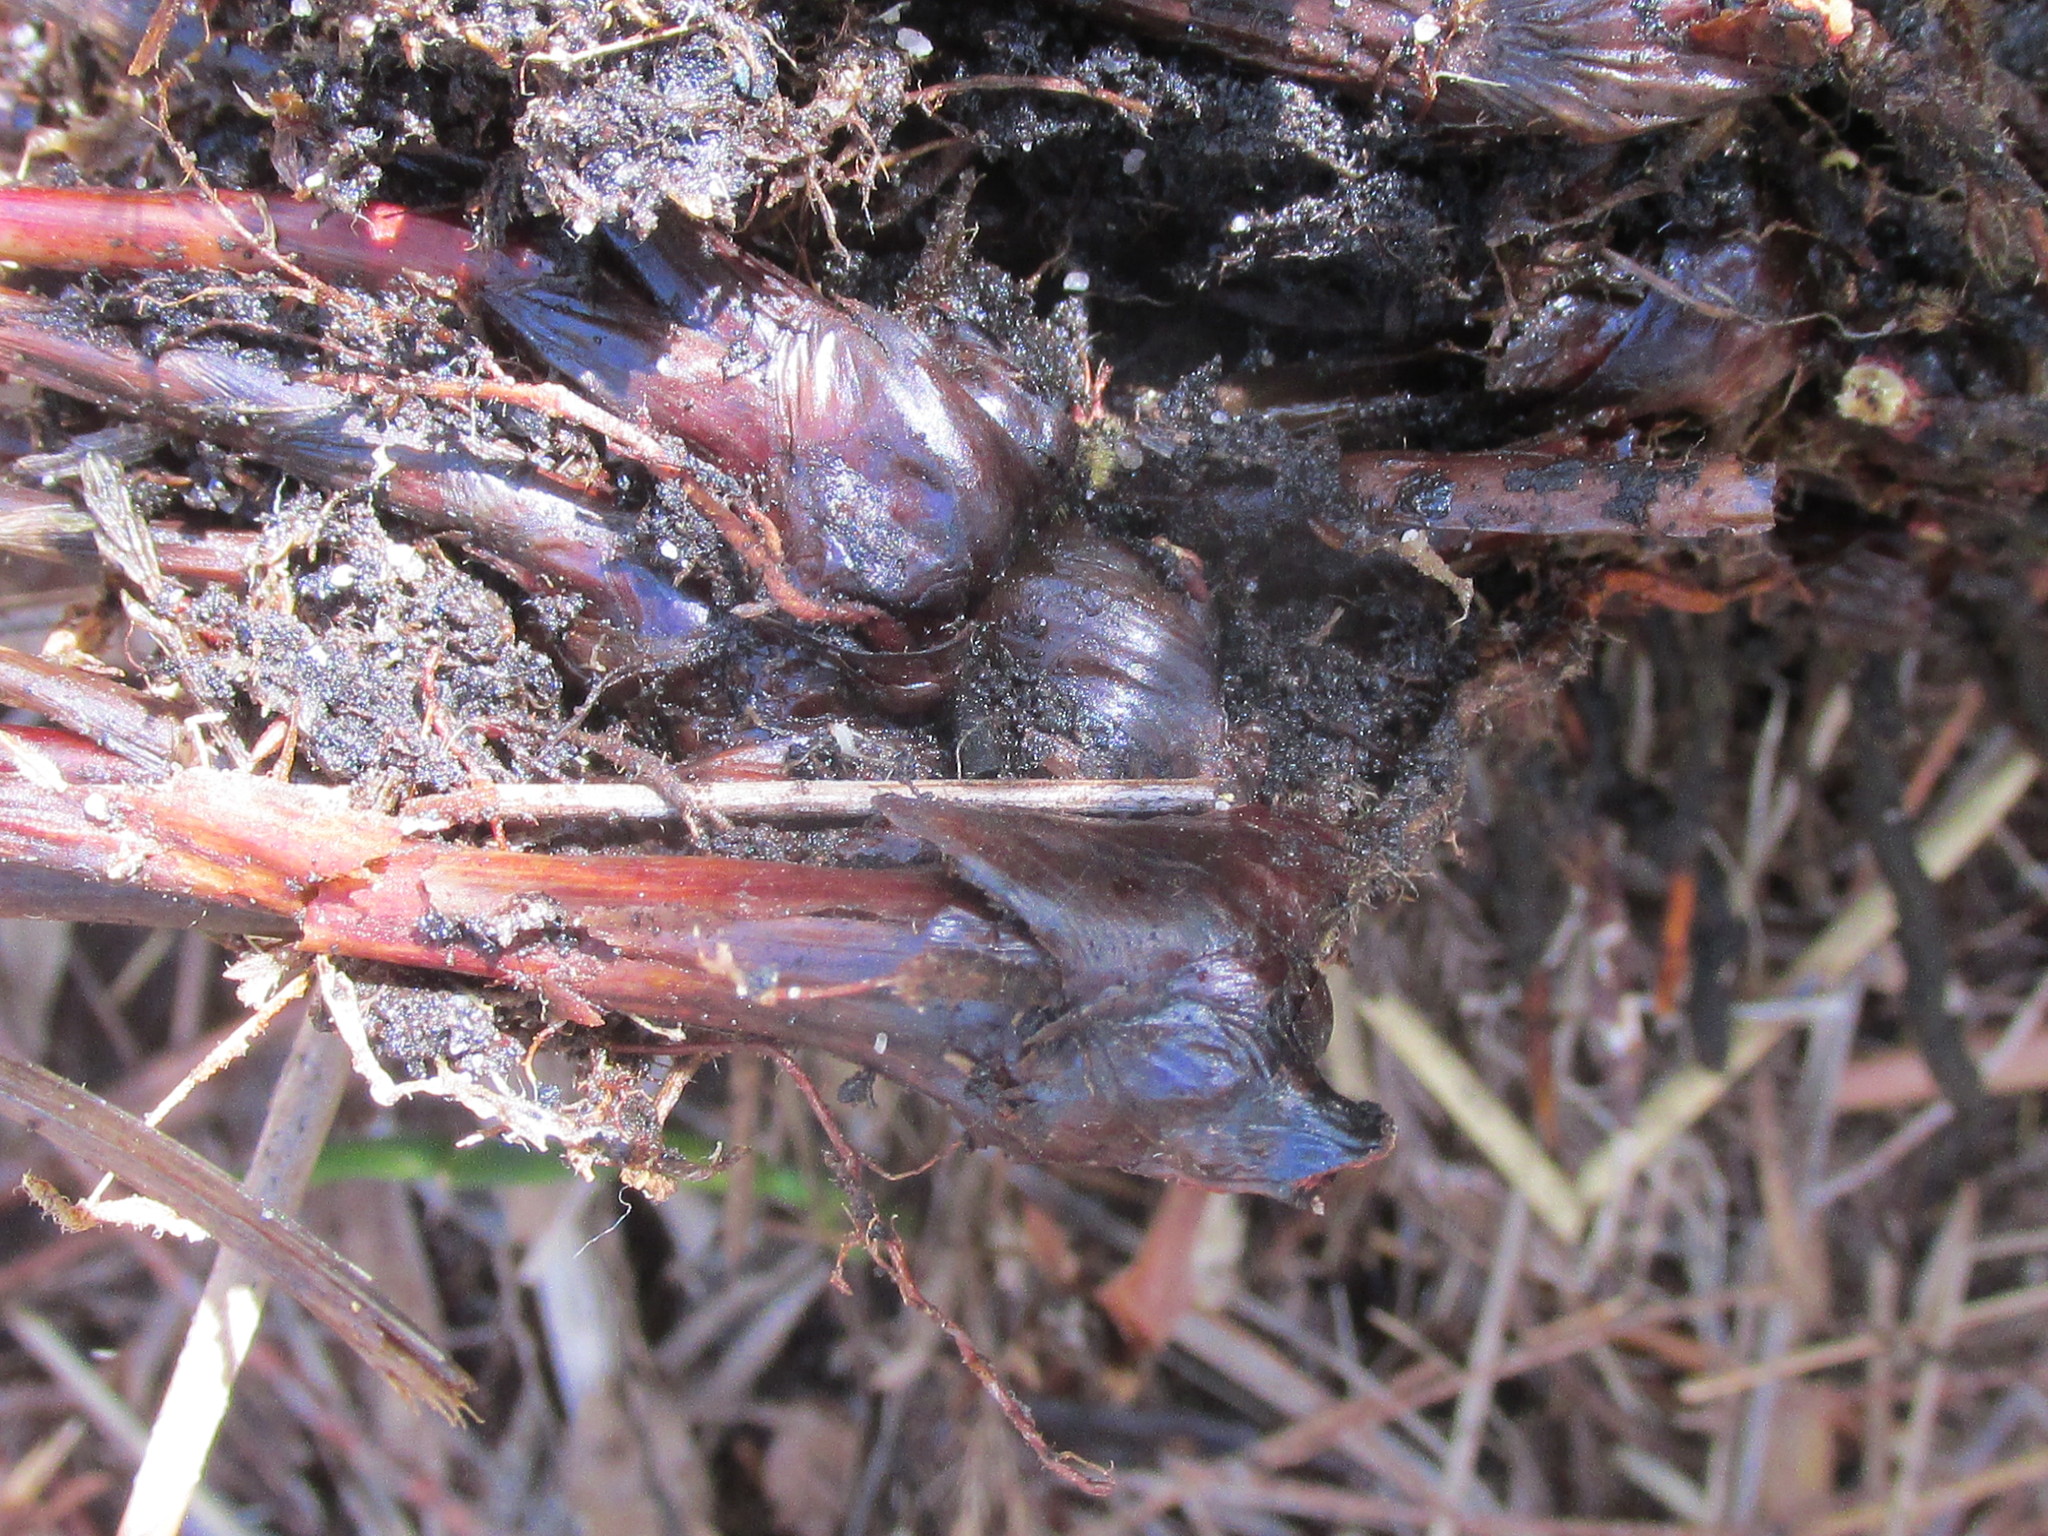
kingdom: Plantae
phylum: Tracheophyta
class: Liliopsida
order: Poales
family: Cyperaceae
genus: Schoenus
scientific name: Schoenus neovillosus
